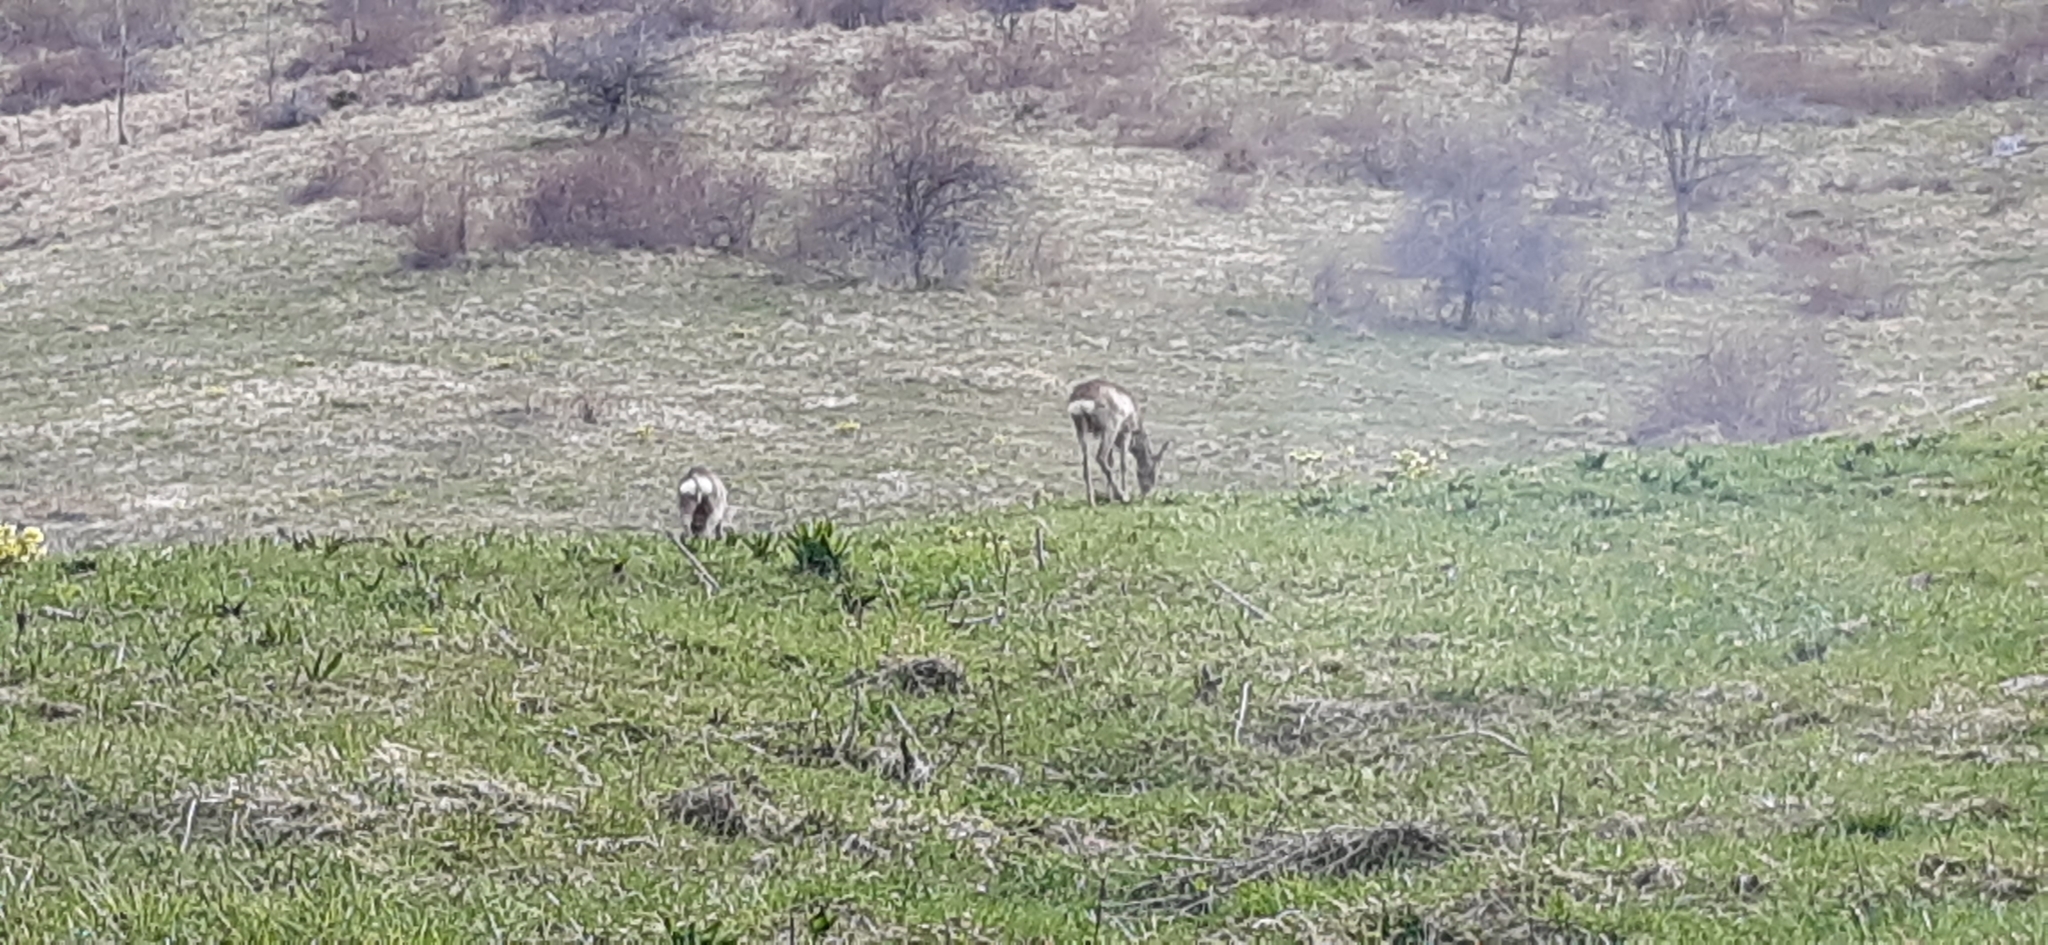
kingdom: Animalia
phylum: Chordata
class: Mammalia
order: Artiodactyla
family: Cervidae
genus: Capreolus
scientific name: Capreolus capreolus
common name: Western roe deer
